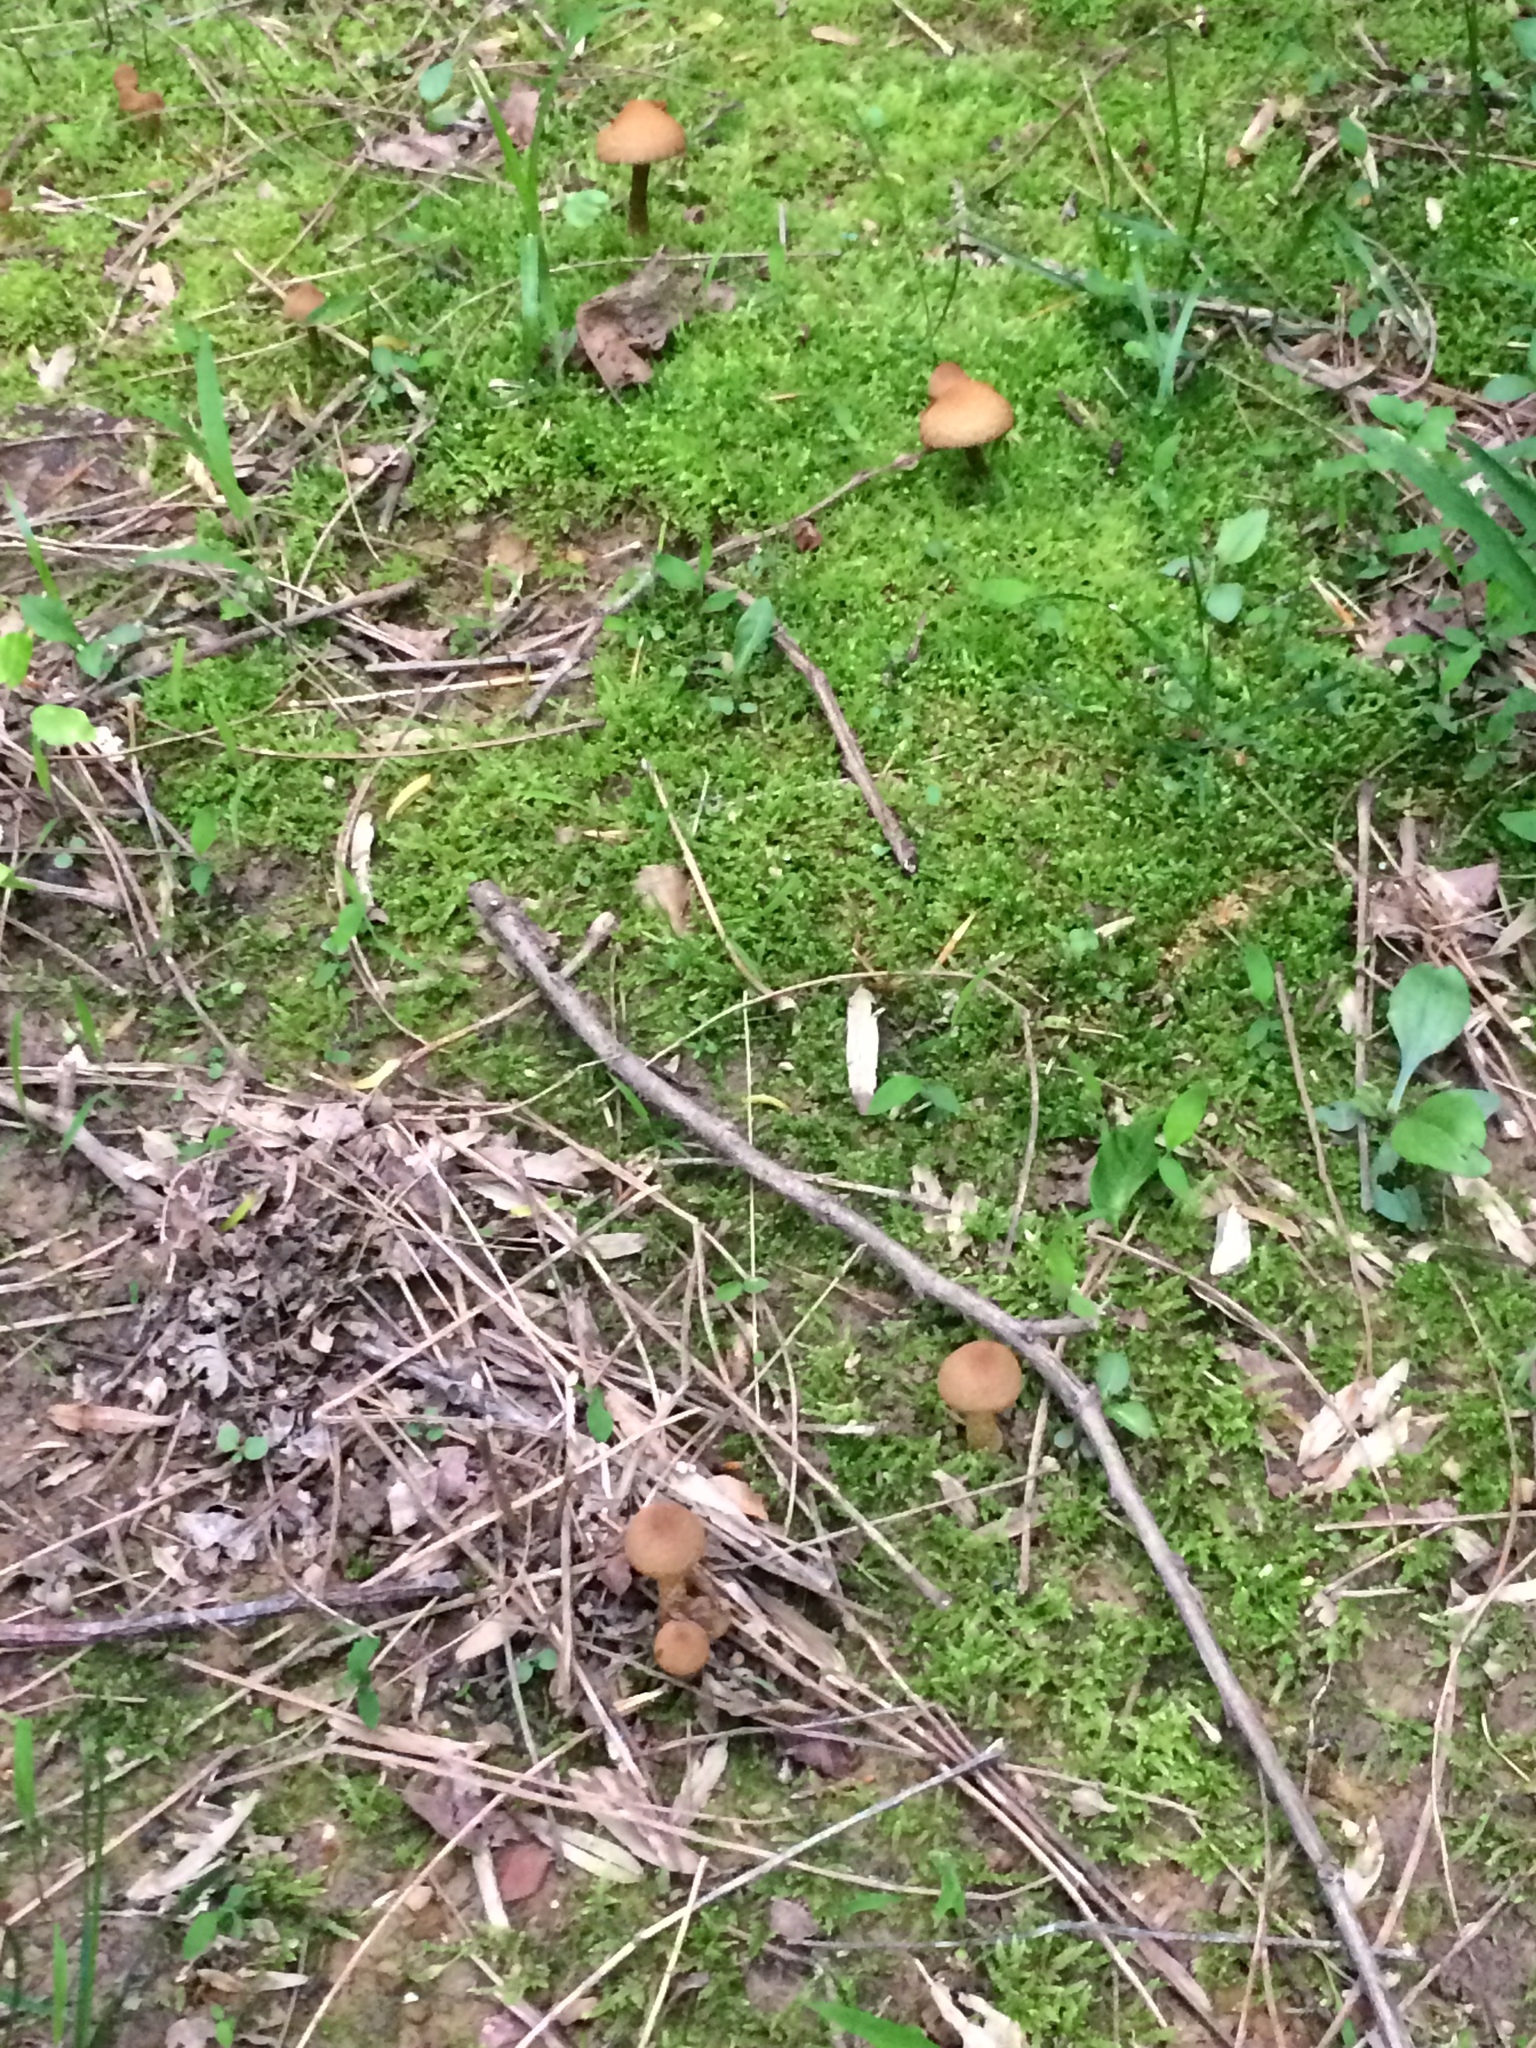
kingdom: Fungi
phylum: Basidiomycota
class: Agaricomycetes
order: Agaricales
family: Psathyrellaceae
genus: Lacrymaria
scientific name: Lacrymaria lacrymabunda
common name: Weeping widow
